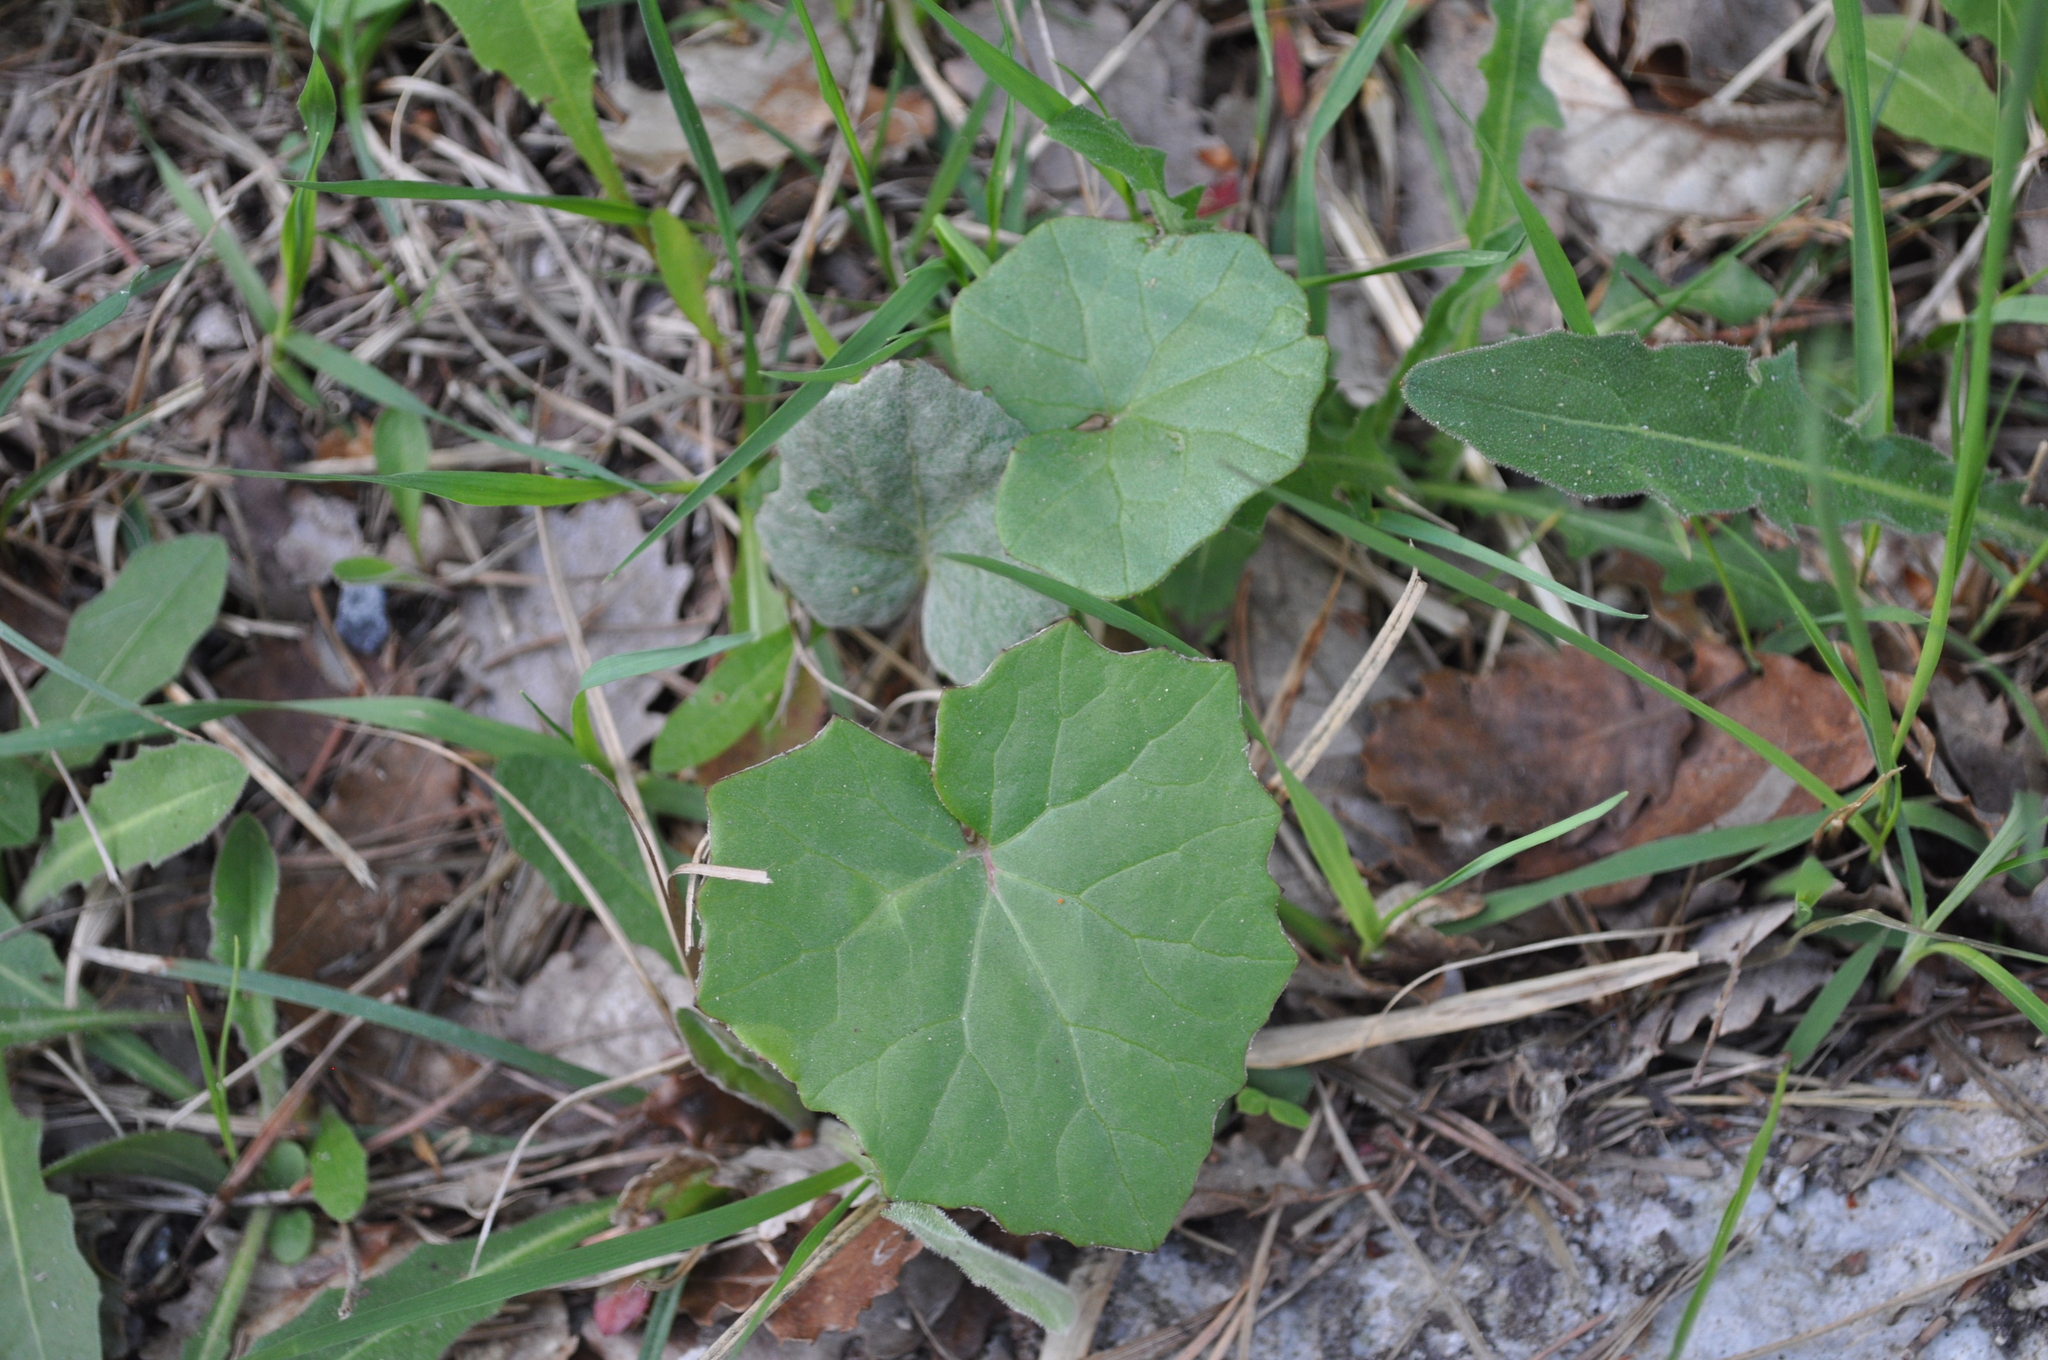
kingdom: Plantae
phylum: Tracheophyta
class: Magnoliopsida
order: Asterales
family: Asteraceae
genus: Tussilago
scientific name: Tussilago farfara
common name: Coltsfoot
